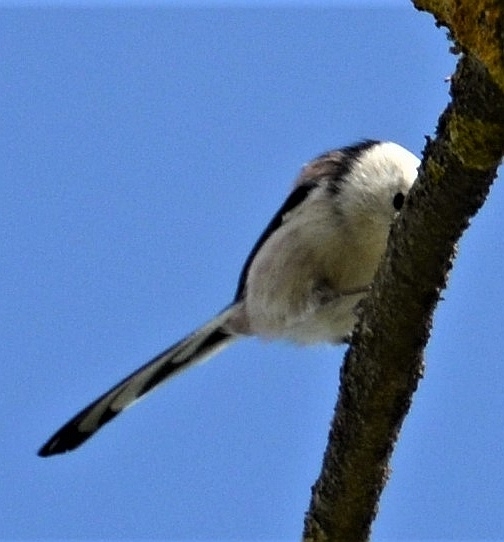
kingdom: Animalia
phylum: Chordata
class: Aves
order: Passeriformes
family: Aegithalidae
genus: Aegithalos
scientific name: Aegithalos caudatus
